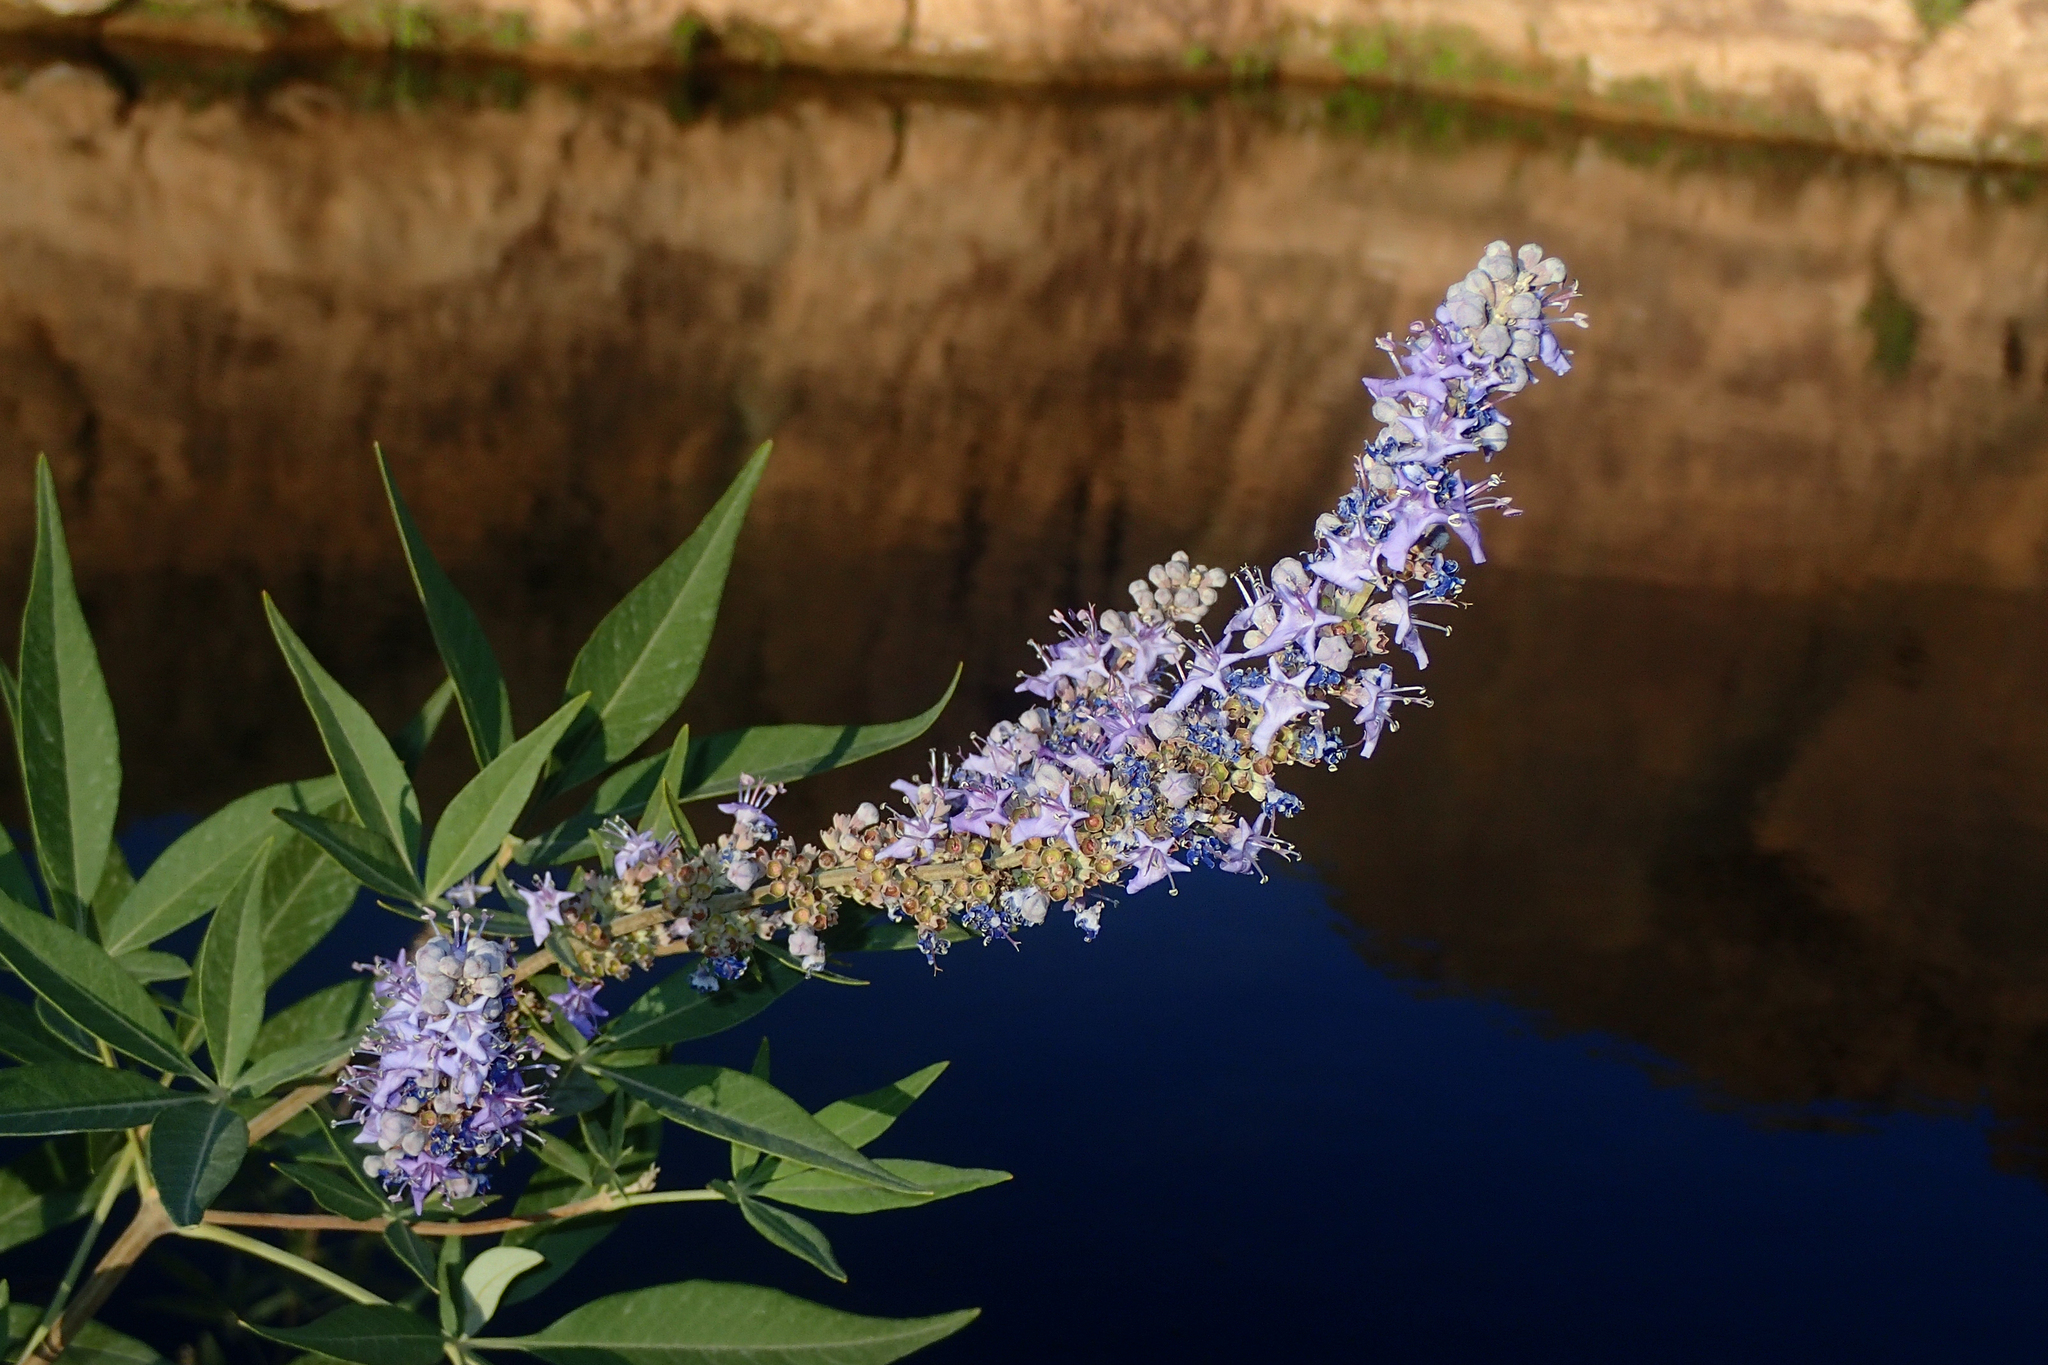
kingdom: Plantae
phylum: Tracheophyta
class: Magnoliopsida
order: Lamiales
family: Lamiaceae
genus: Vitex
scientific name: Vitex agnus-castus
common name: Chasteberry
